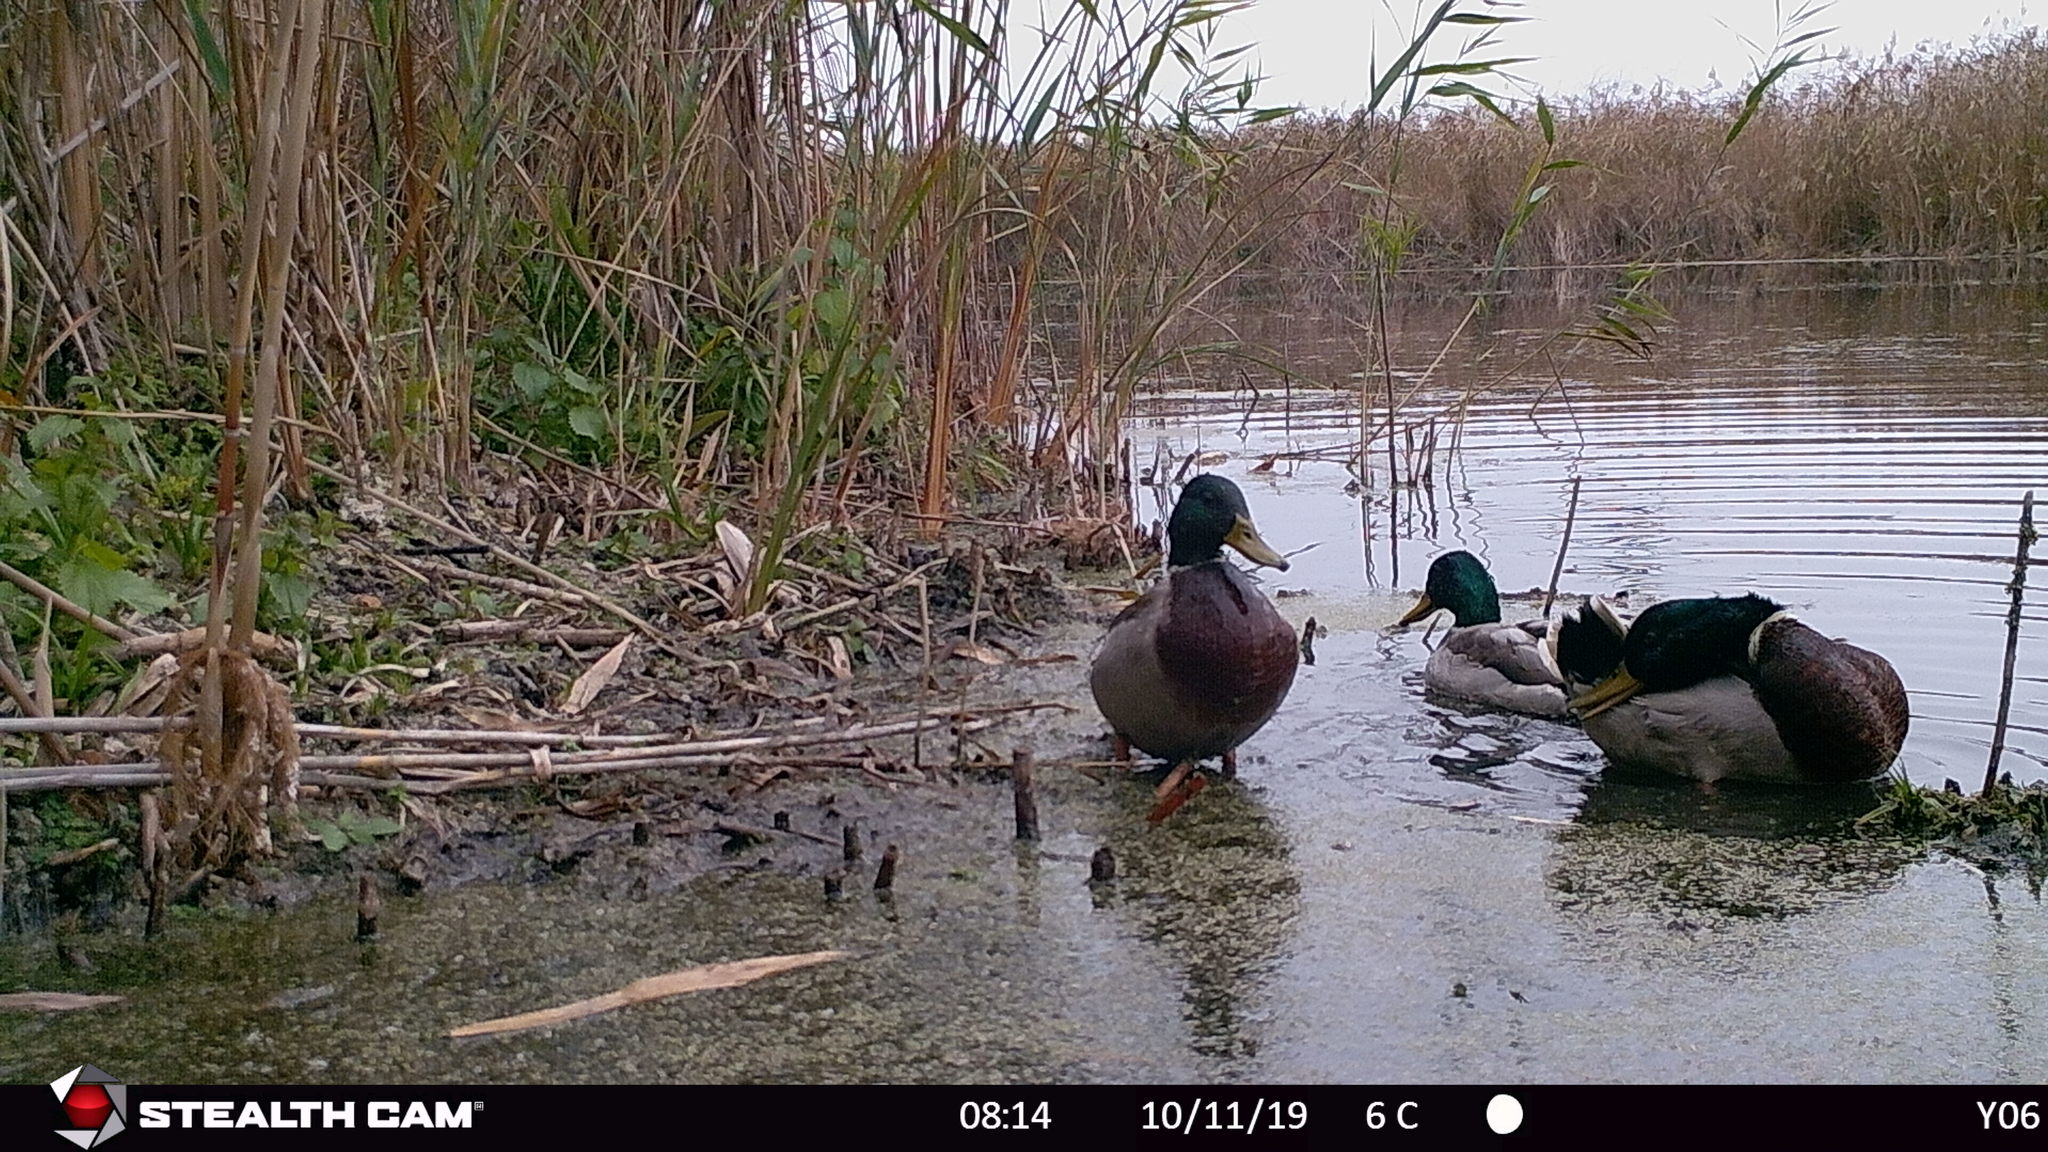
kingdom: Animalia
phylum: Chordata
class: Aves
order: Anseriformes
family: Anatidae
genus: Anas
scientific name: Anas platyrhynchos
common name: Mallard
